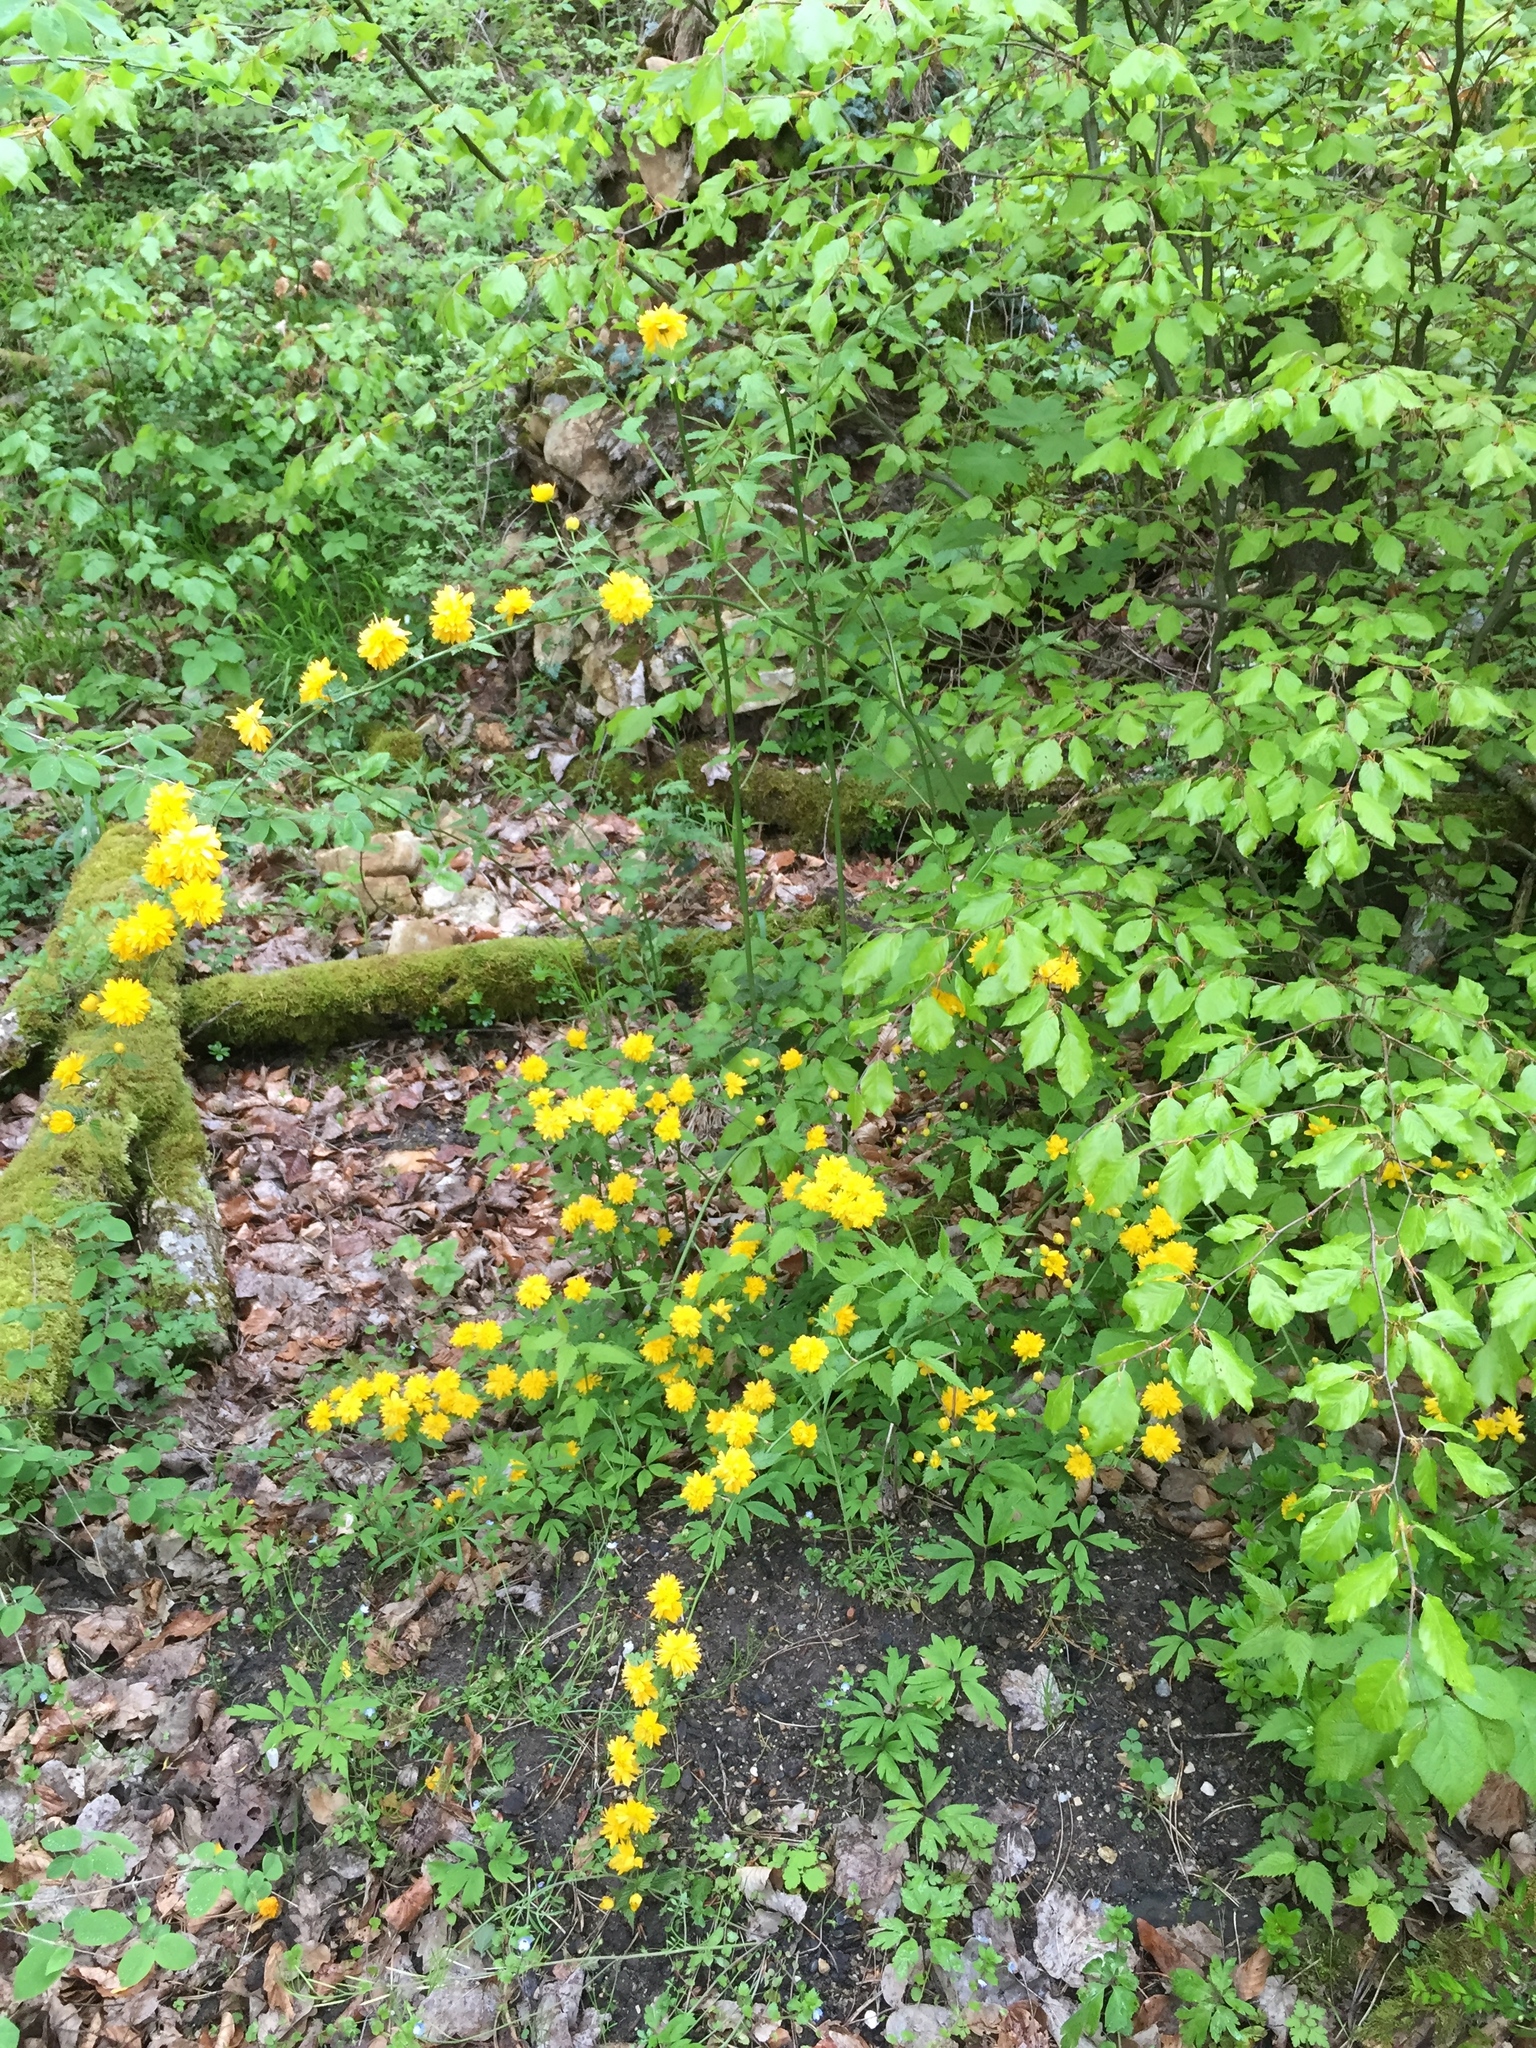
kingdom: Plantae
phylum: Tracheophyta
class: Magnoliopsida
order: Rosales
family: Rosaceae
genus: Kerria
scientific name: Kerria japonica
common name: Japanese kerria
